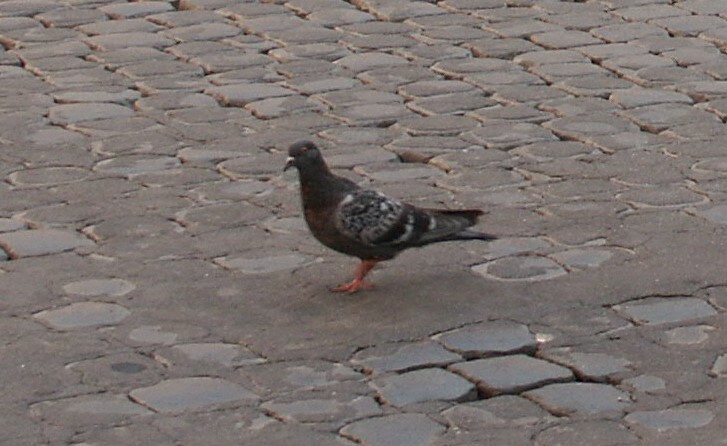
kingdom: Animalia
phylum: Chordata
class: Aves
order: Columbiformes
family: Columbidae
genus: Columba
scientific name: Columba livia
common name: Rock pigeon
